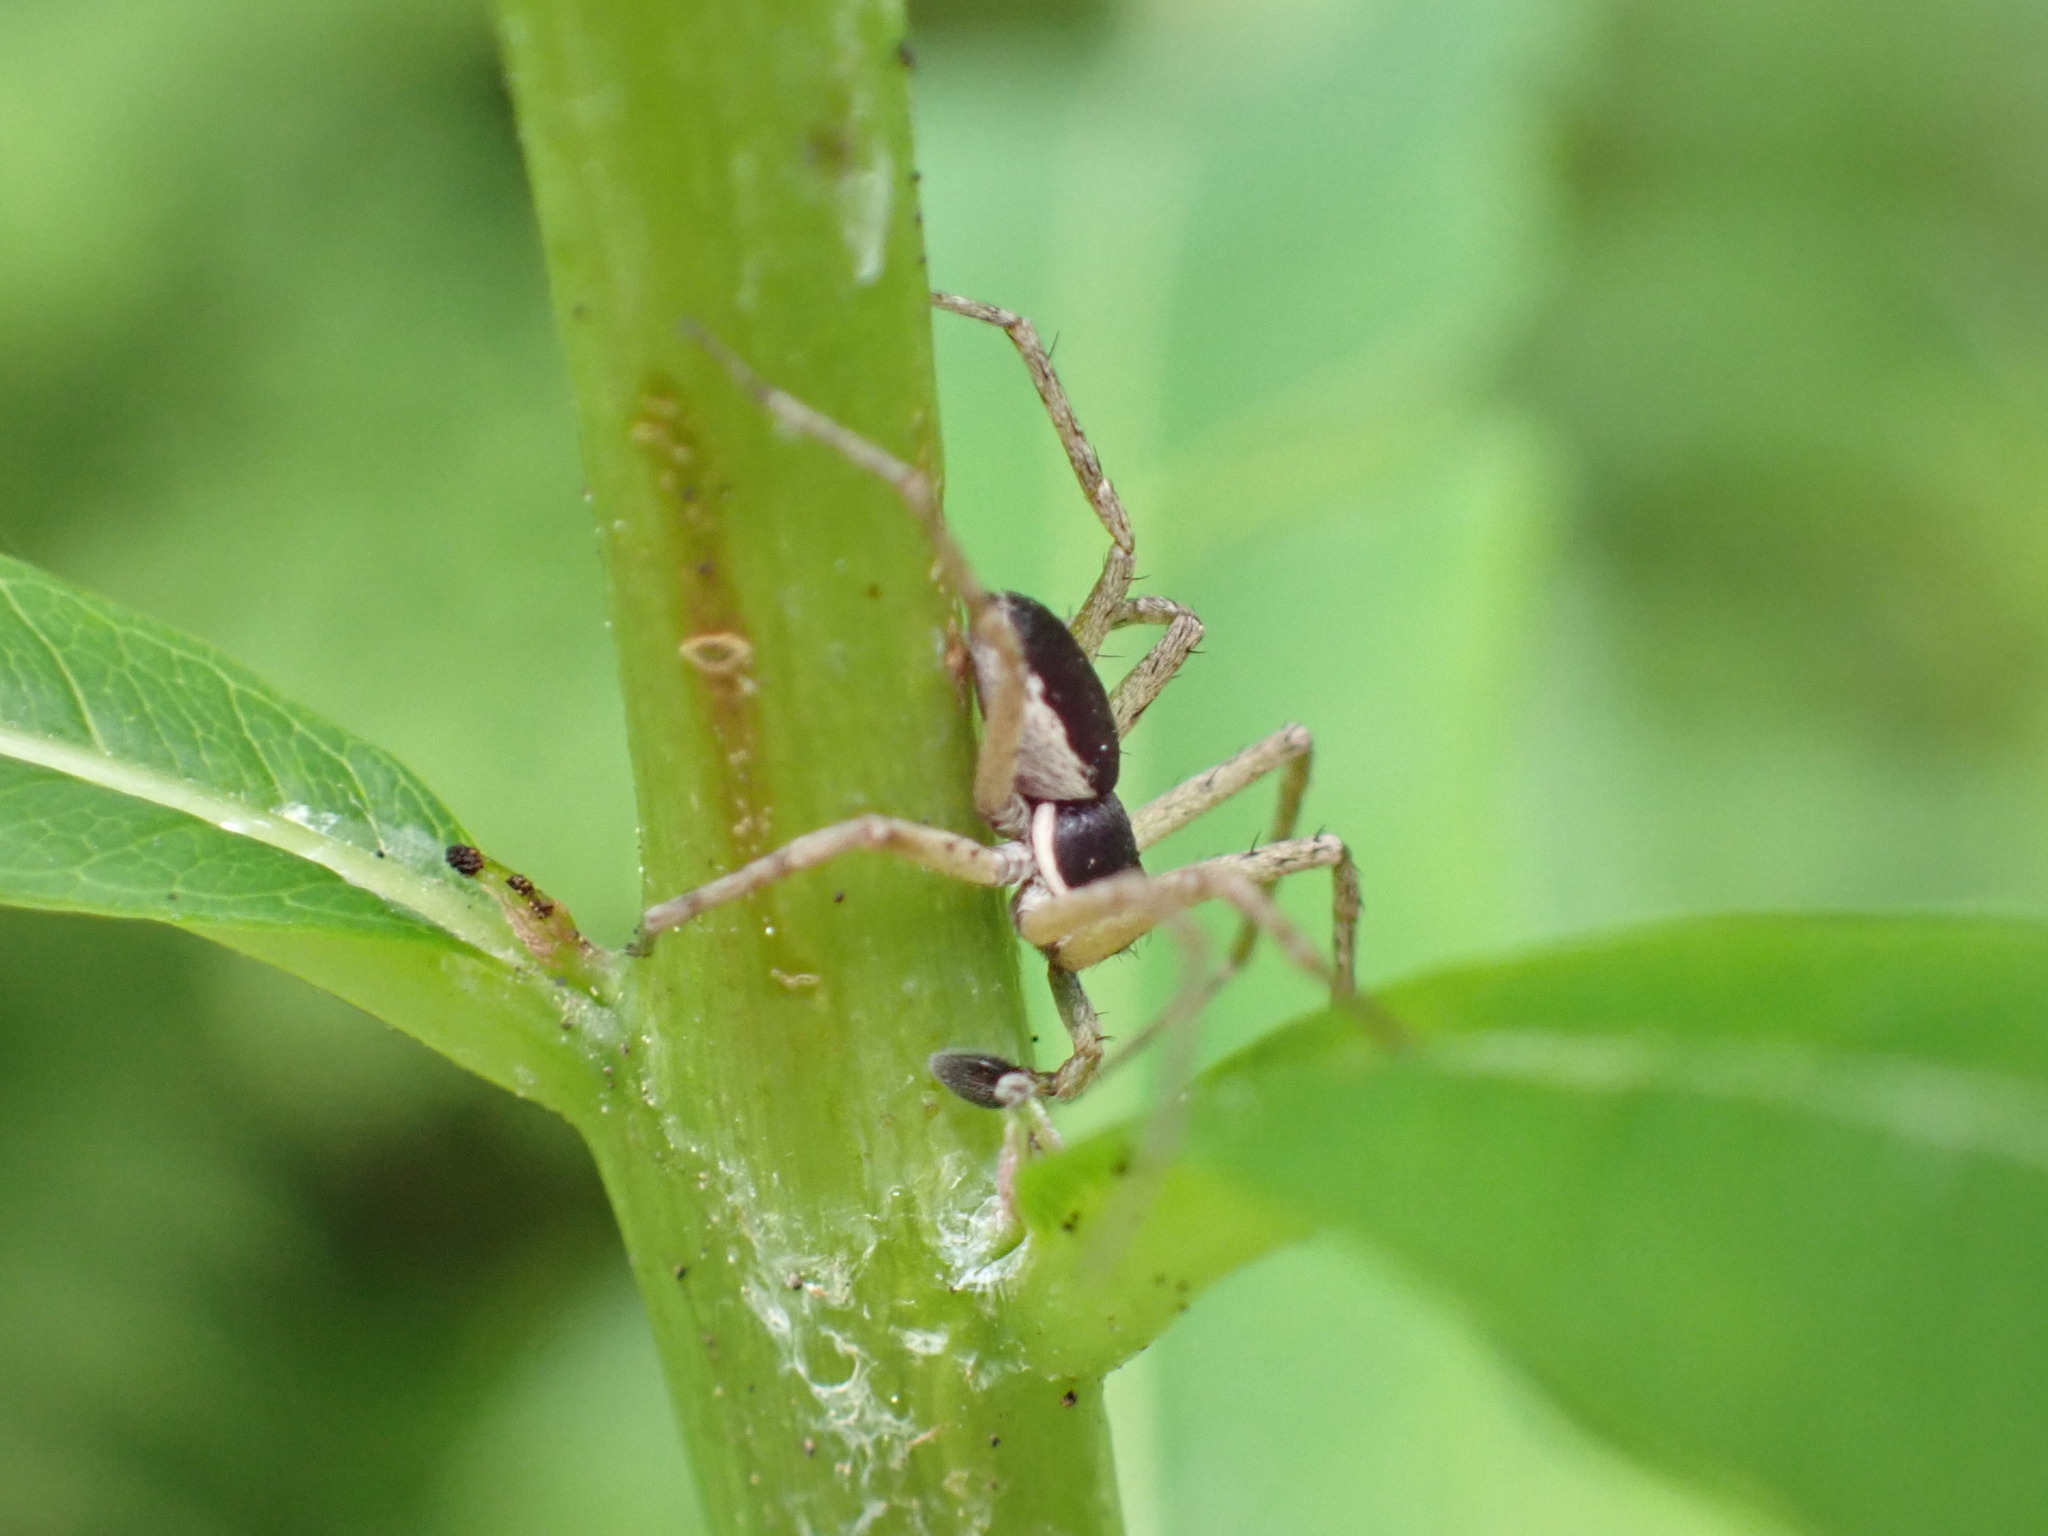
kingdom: Animalia
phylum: Arthropoda
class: Arachnida
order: Araneae
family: Philodromidae
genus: Philodromus
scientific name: Philodromus dispar
